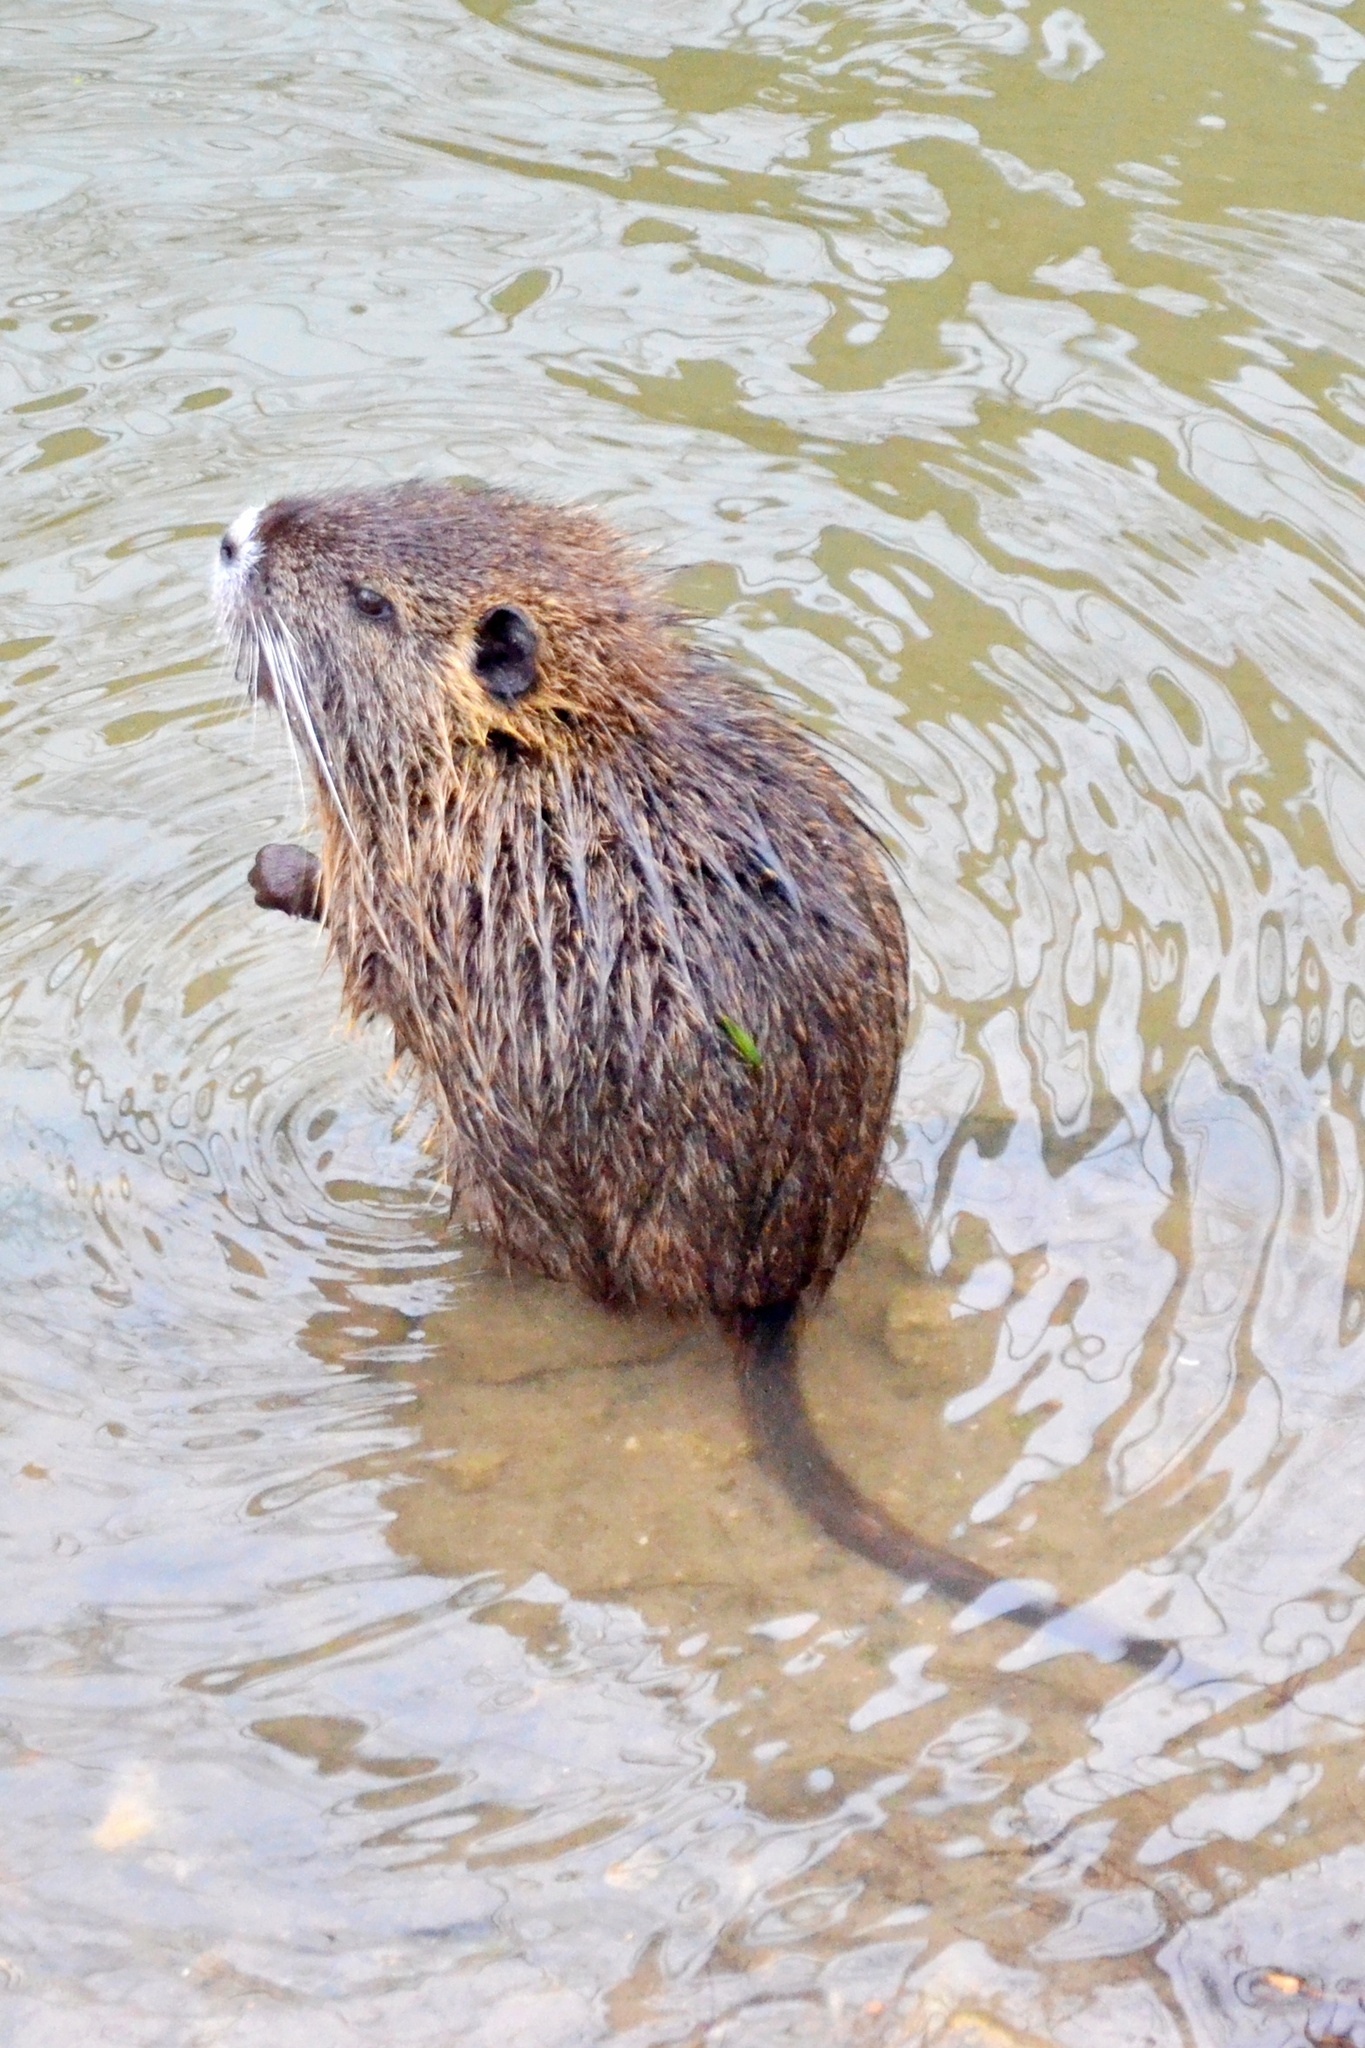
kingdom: Animalia
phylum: Chordata
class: Mammalia
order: Rodentia
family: Myocastoridae
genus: Myocastor
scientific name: Myocastor coypus
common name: Coypu
